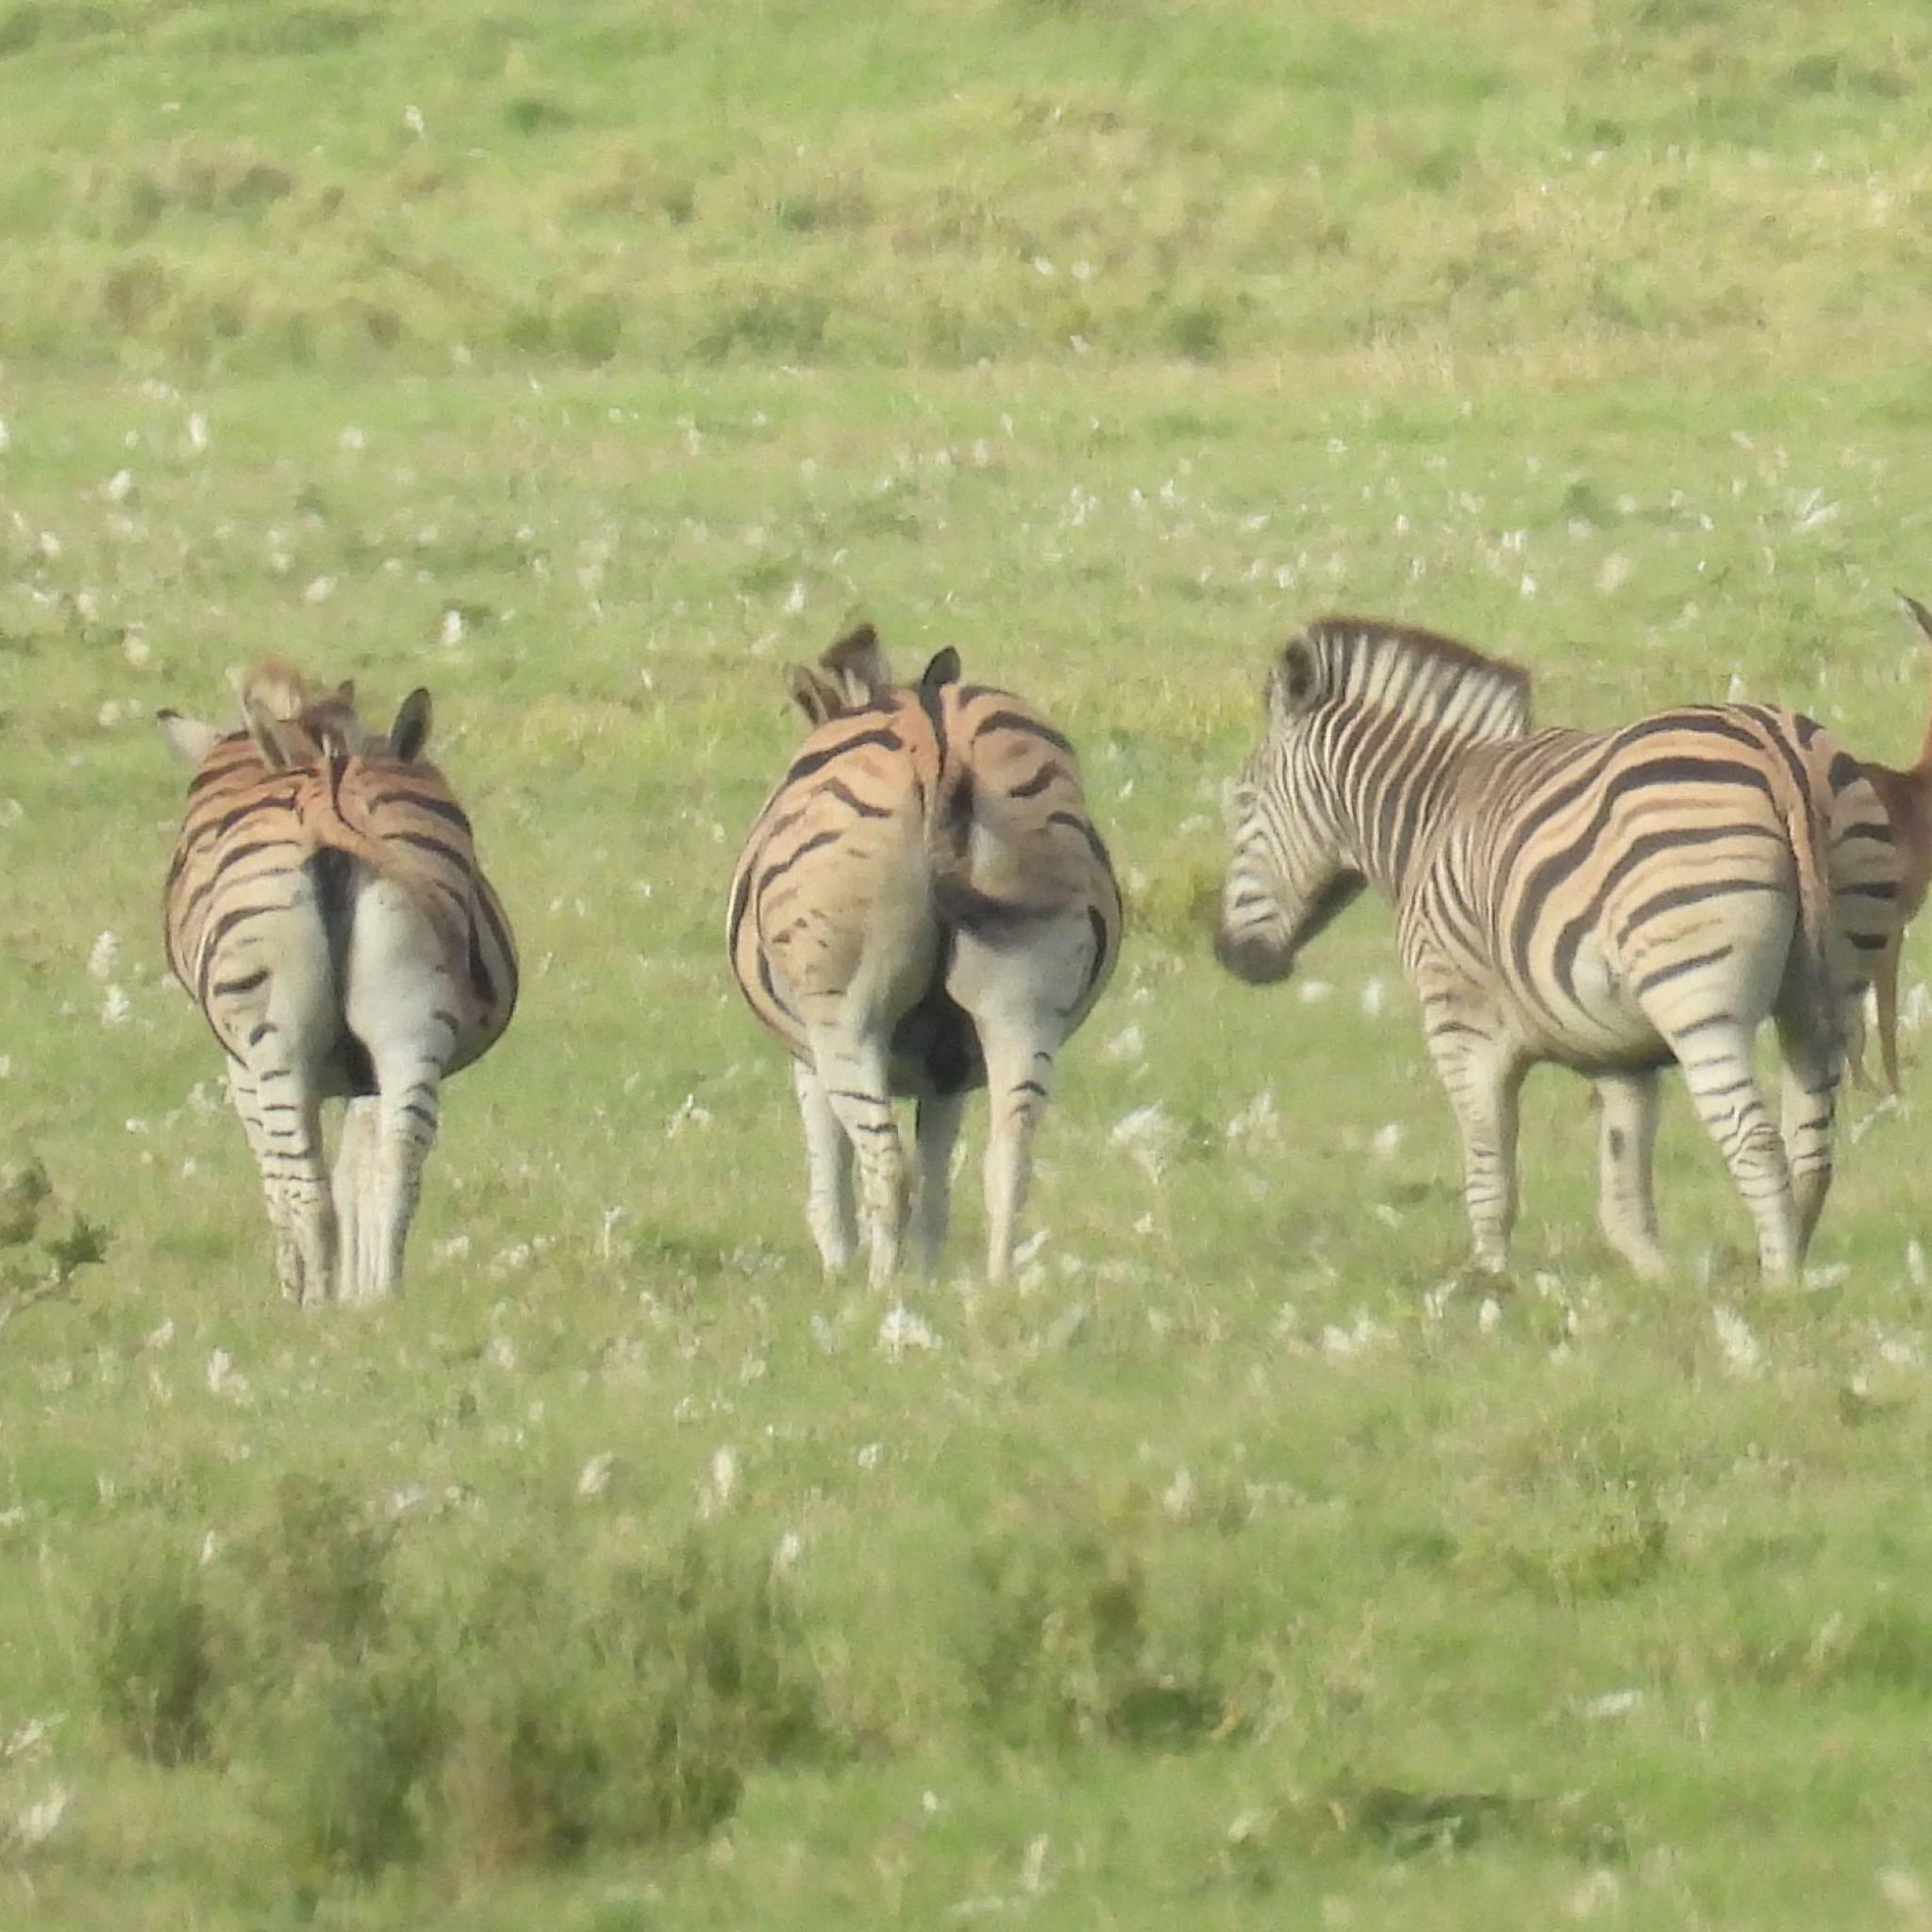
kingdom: Animalia
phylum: Chordata
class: Mammalia
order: Perissodactyla
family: Equidae
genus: Equus
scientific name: Equus quagga
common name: Plains zebra
